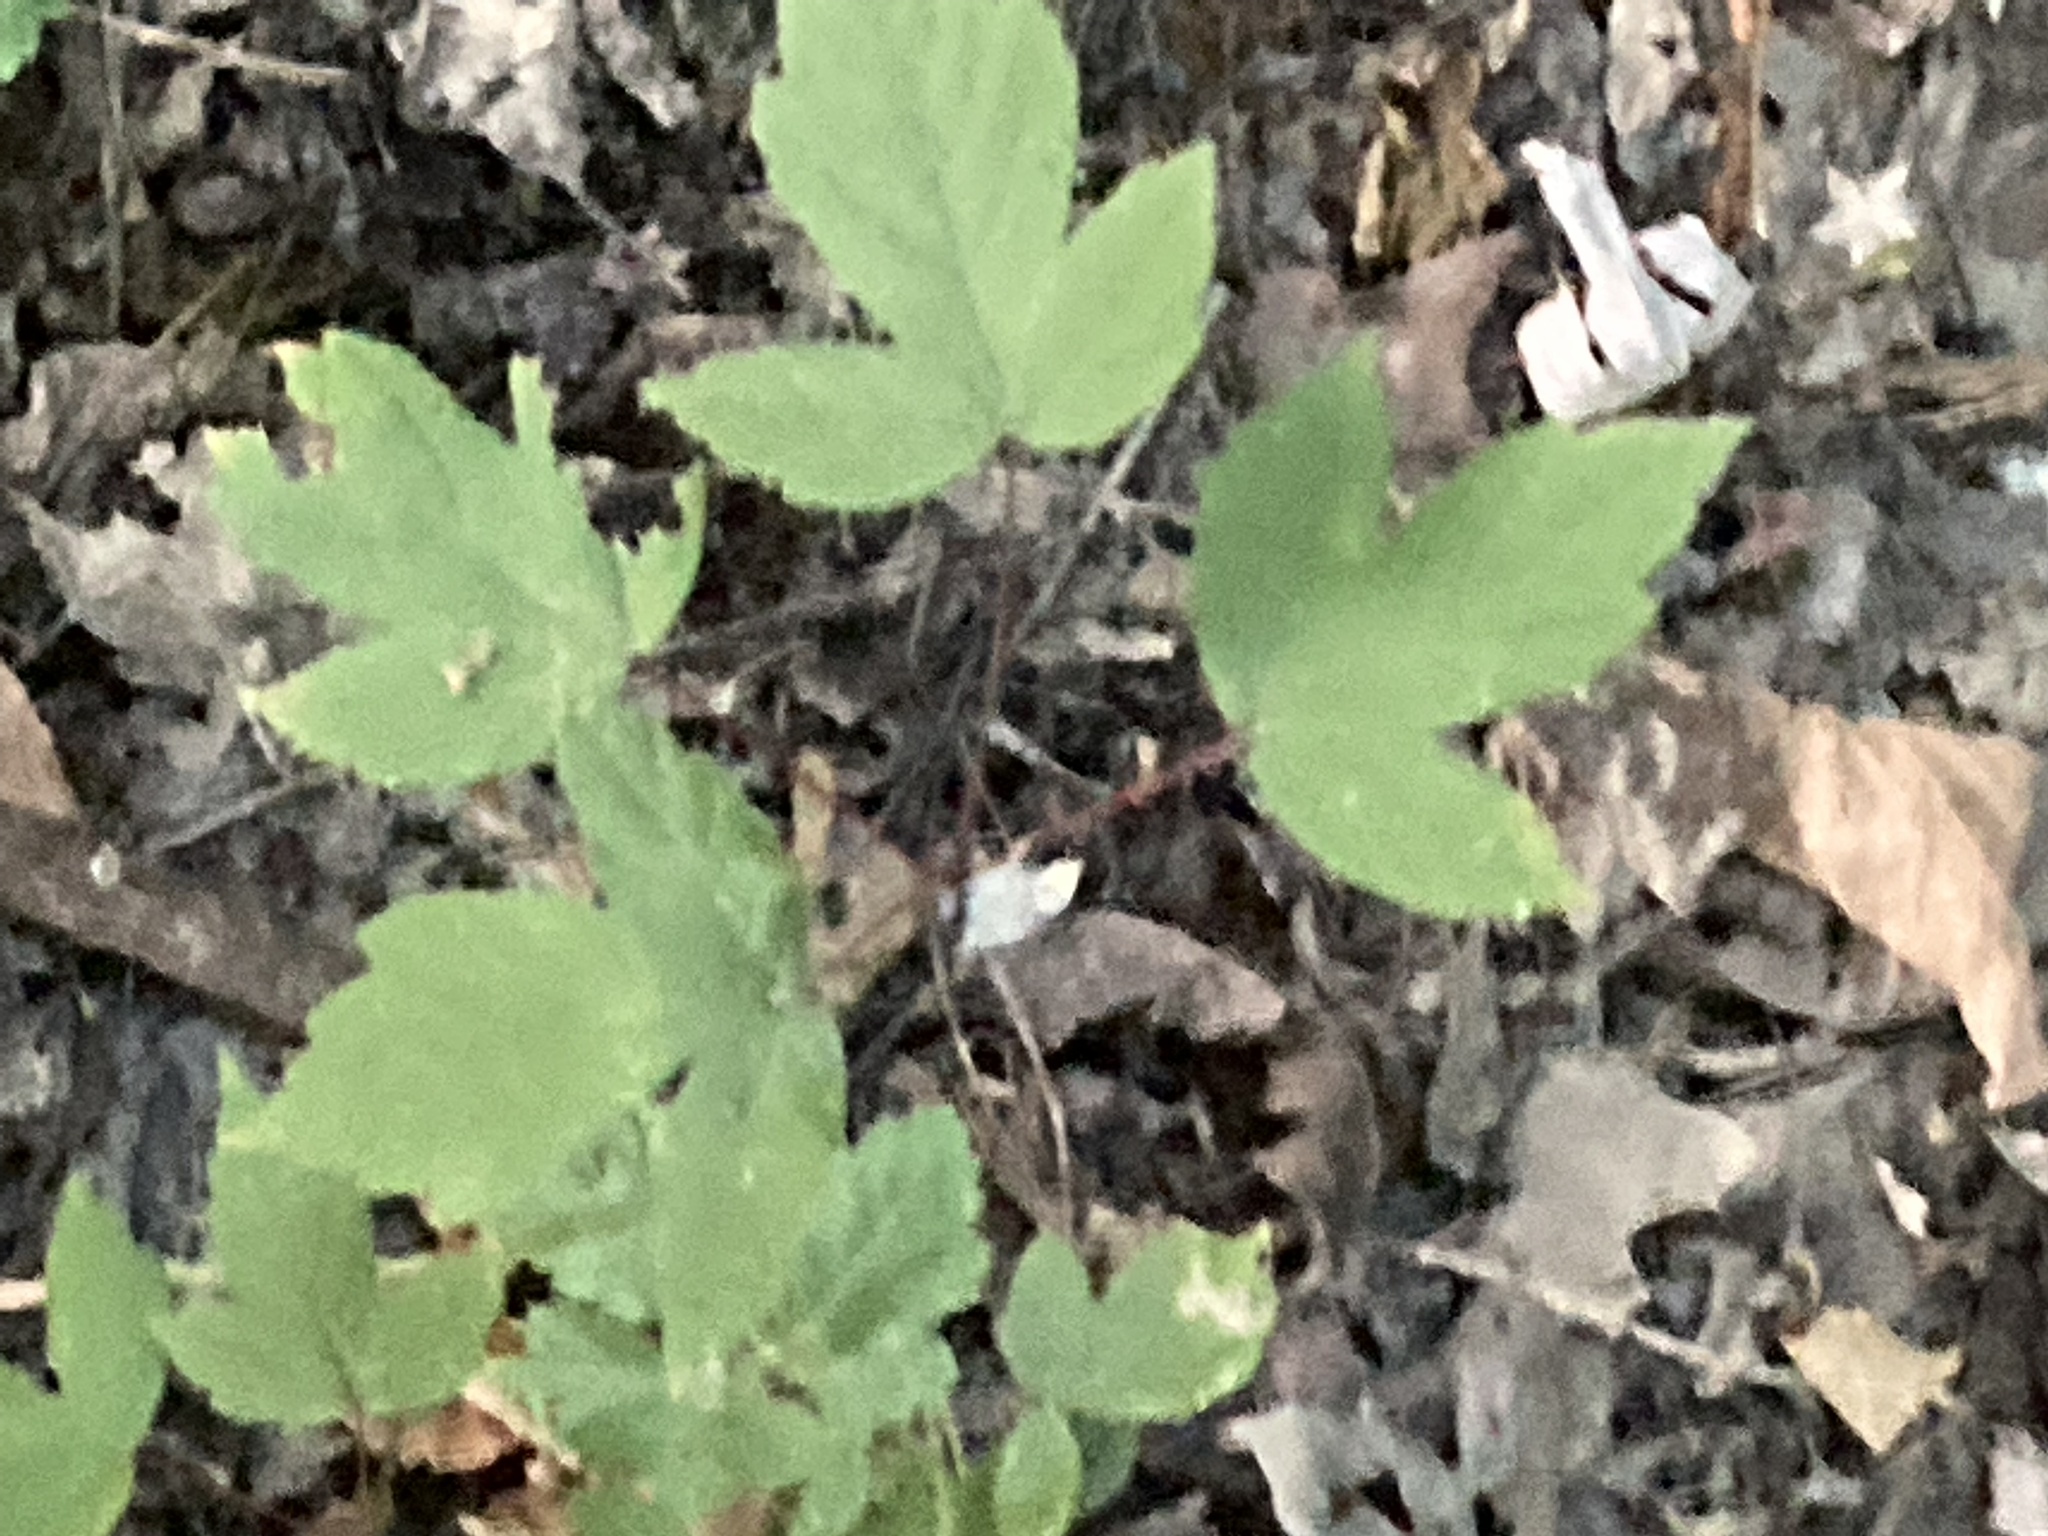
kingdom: Plantae
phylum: Tracheophyta
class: Magnoliopsida
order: Sapindales
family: Sapindaceae
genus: Acer
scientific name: Acer negundo
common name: Ashleaf maple
